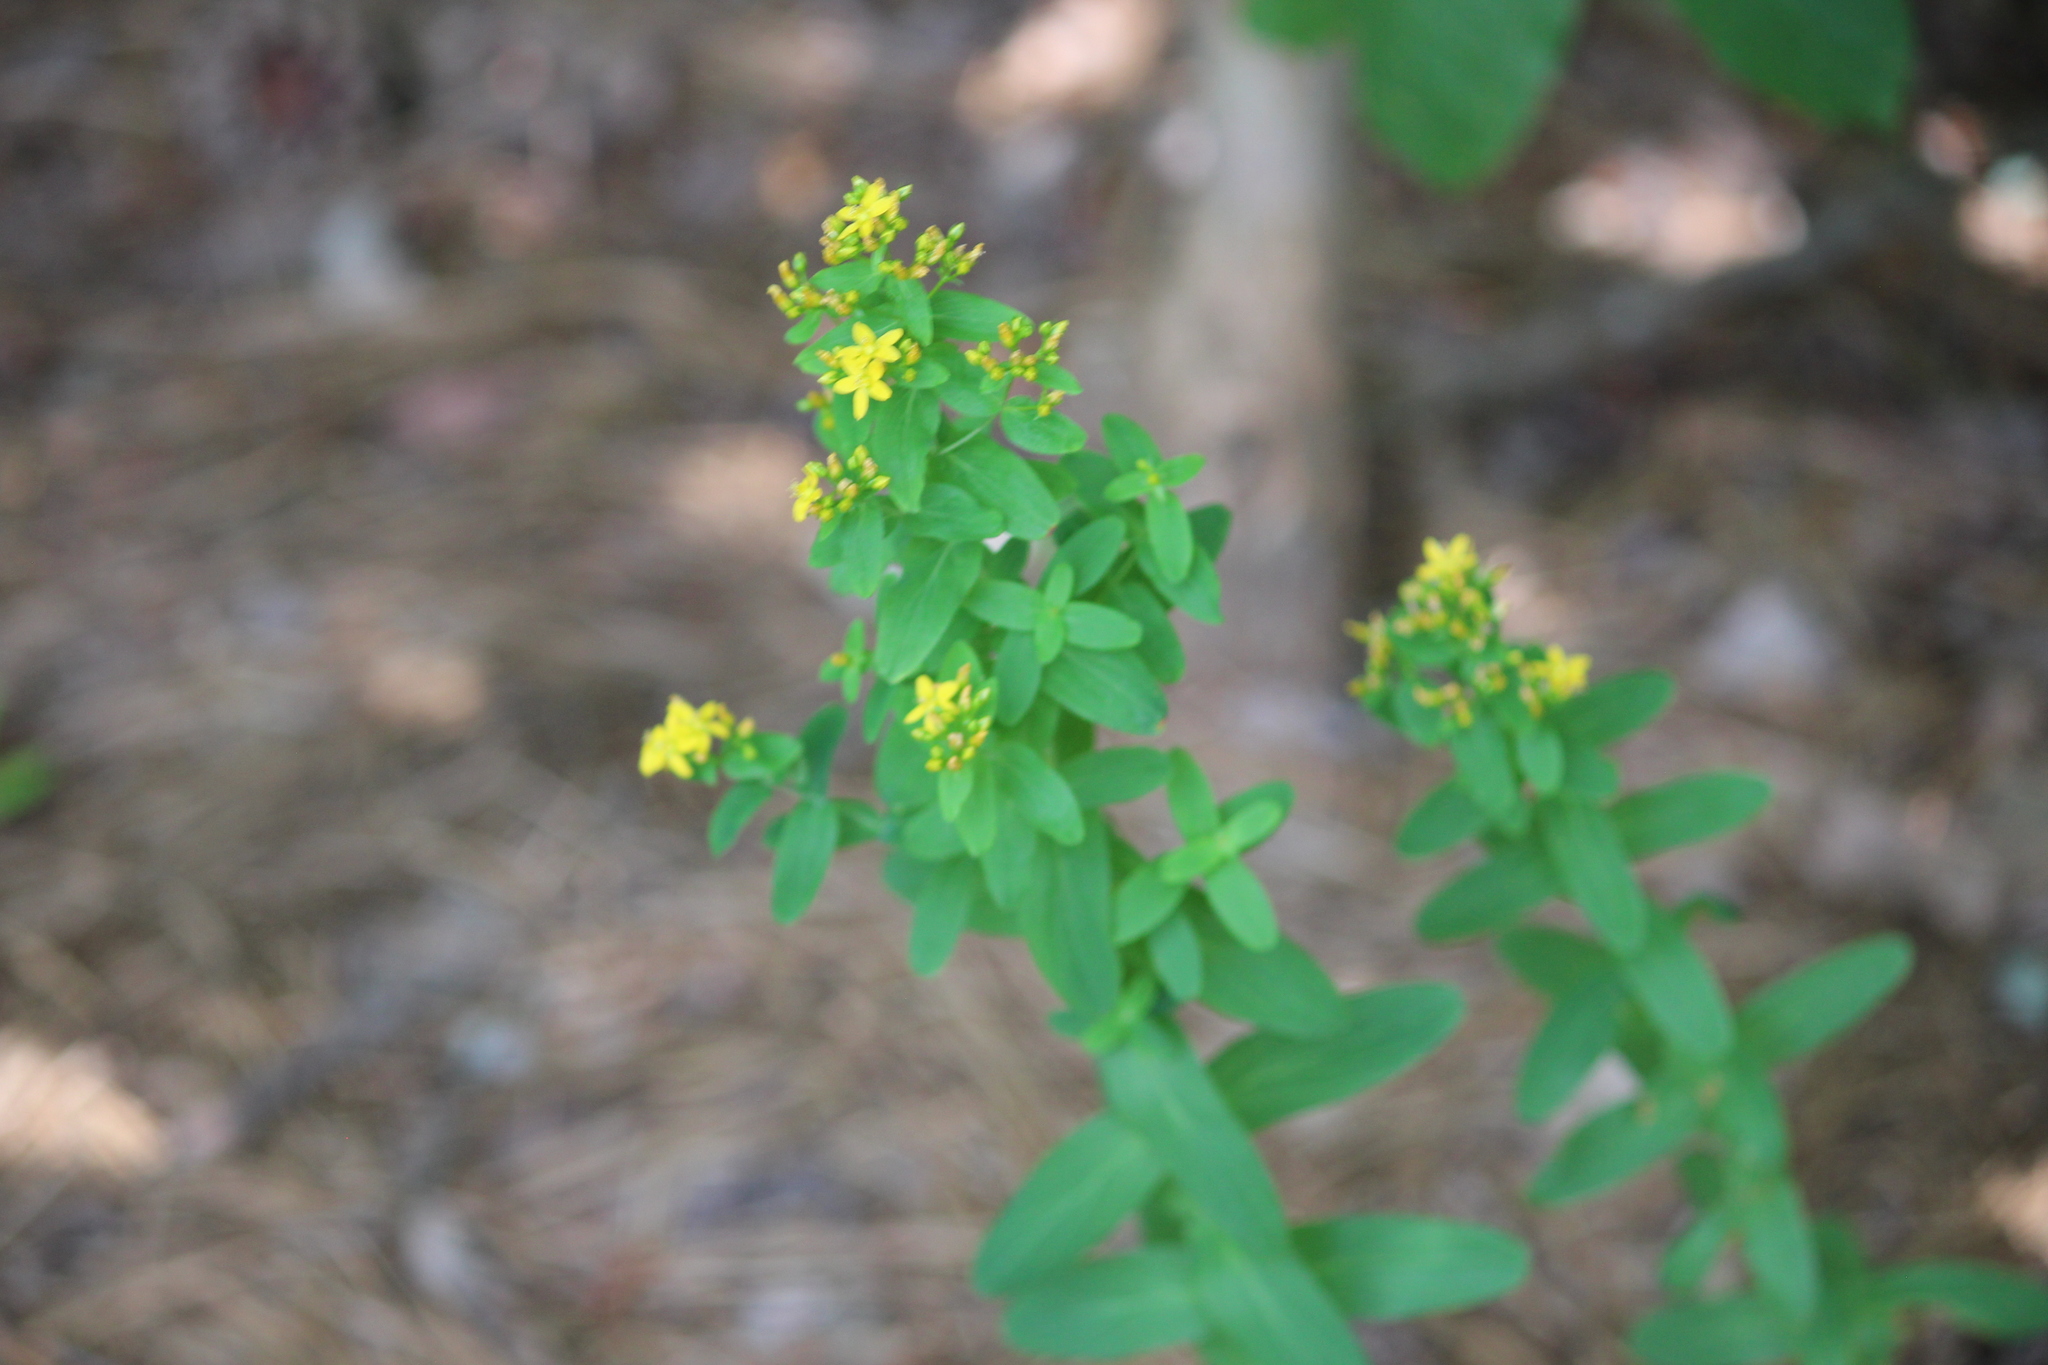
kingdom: Plantae
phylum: Tracheophyta
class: Magnoliopsida
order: Malpighiales
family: Hypericaceae
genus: Hypericum
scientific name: Hypericum punctatum
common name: Spotted st. john's-wort
